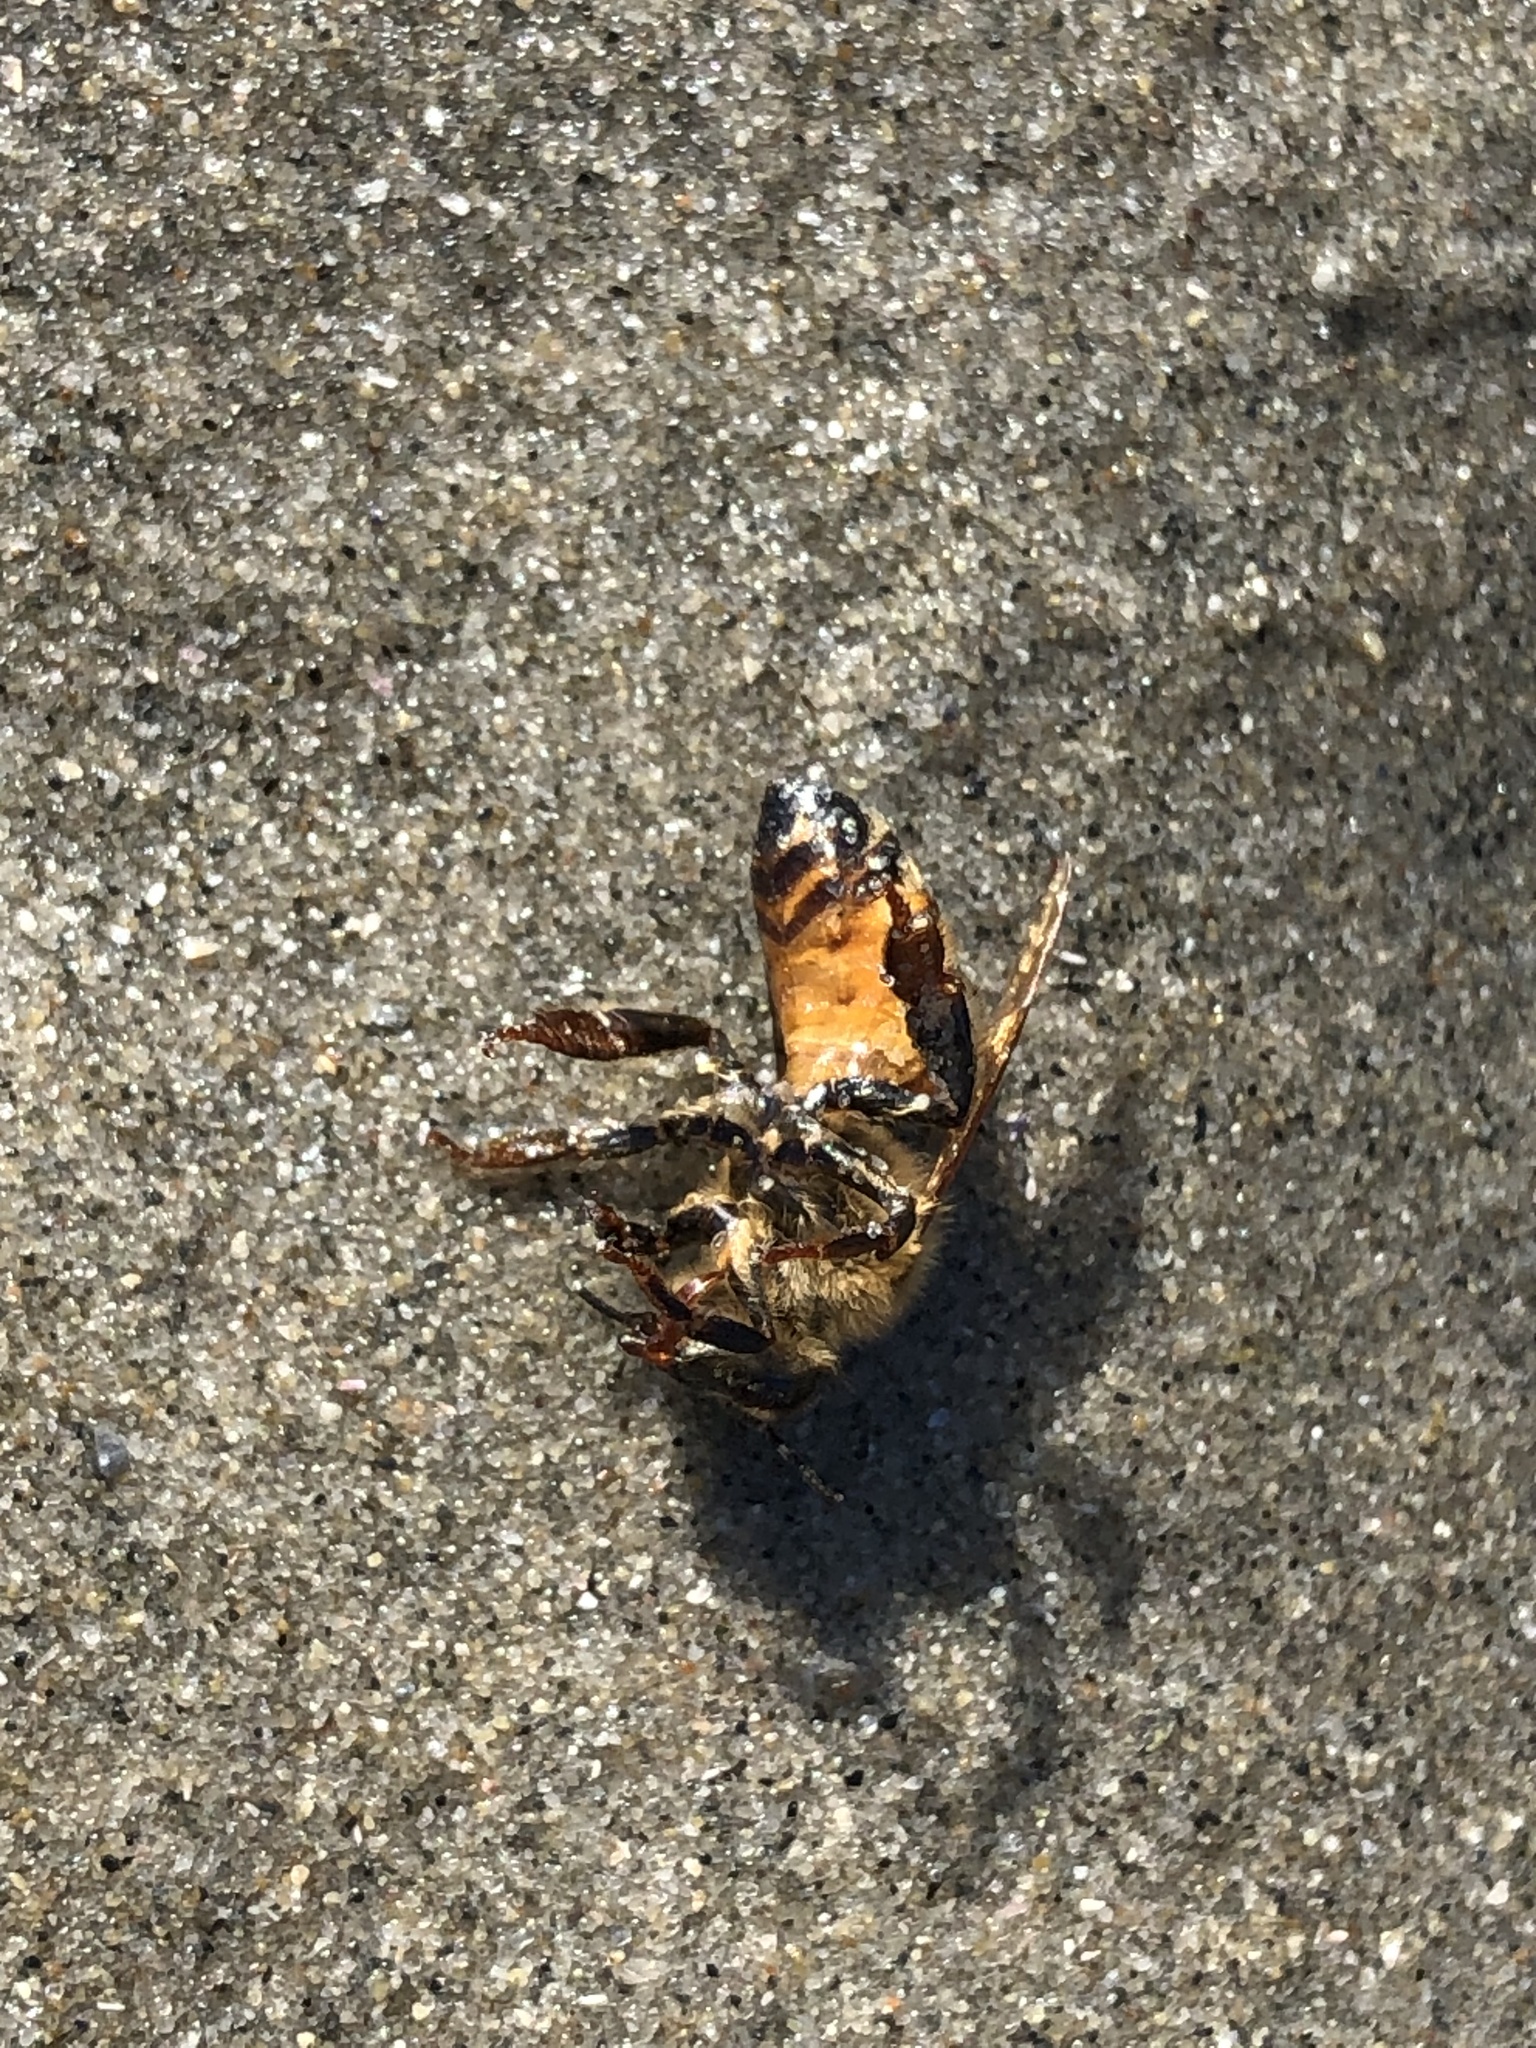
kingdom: Animalia
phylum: Arthropoda
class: Insecta
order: Hymenoptera
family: Apidae
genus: Apis
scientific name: Apis mellifera
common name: Honey bee
